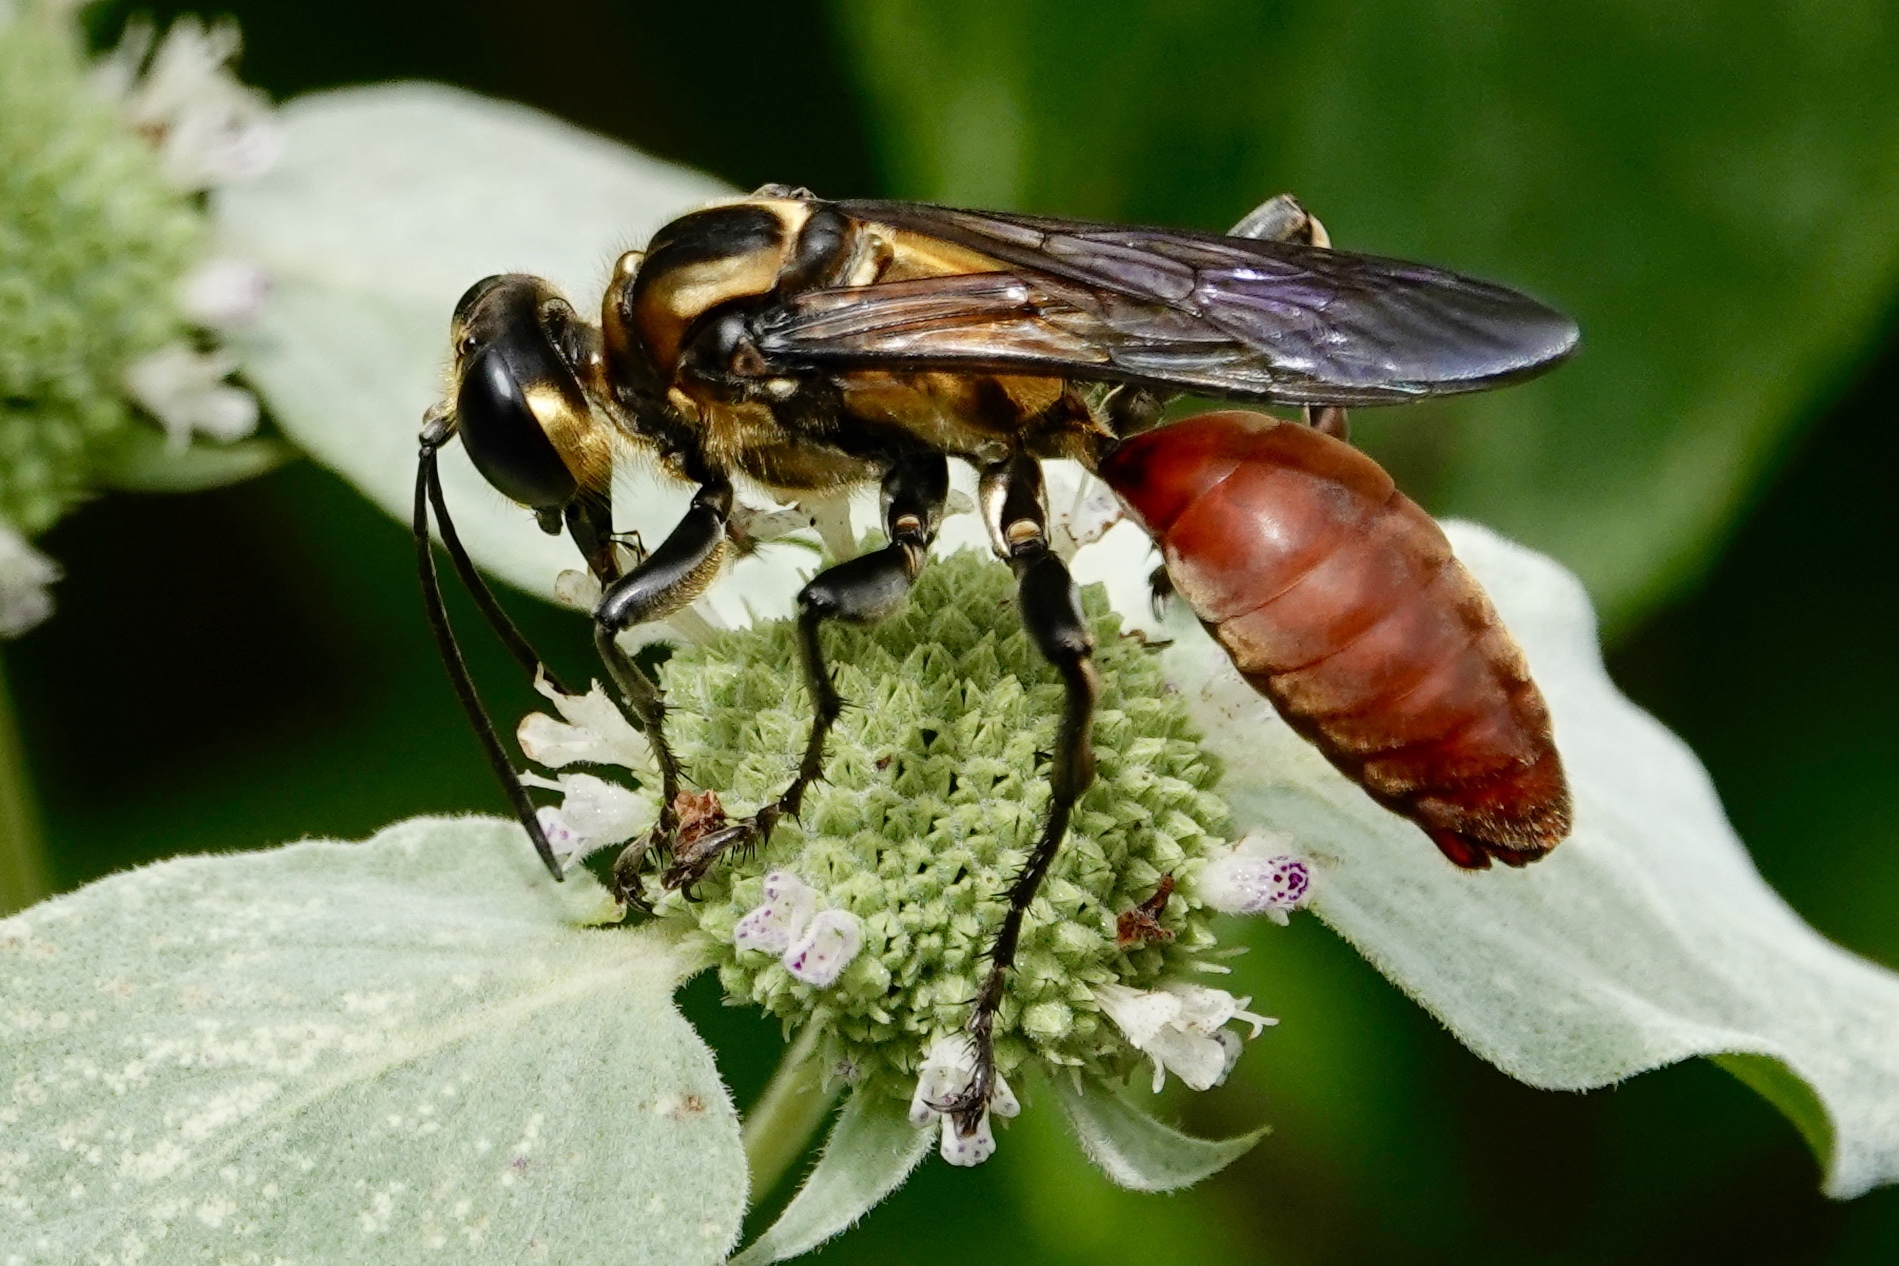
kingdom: Animalia
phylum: Arthropoda
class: Insecta
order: Hymenoptera
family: Sphecidae
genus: Sphex
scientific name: Sphex habenus
